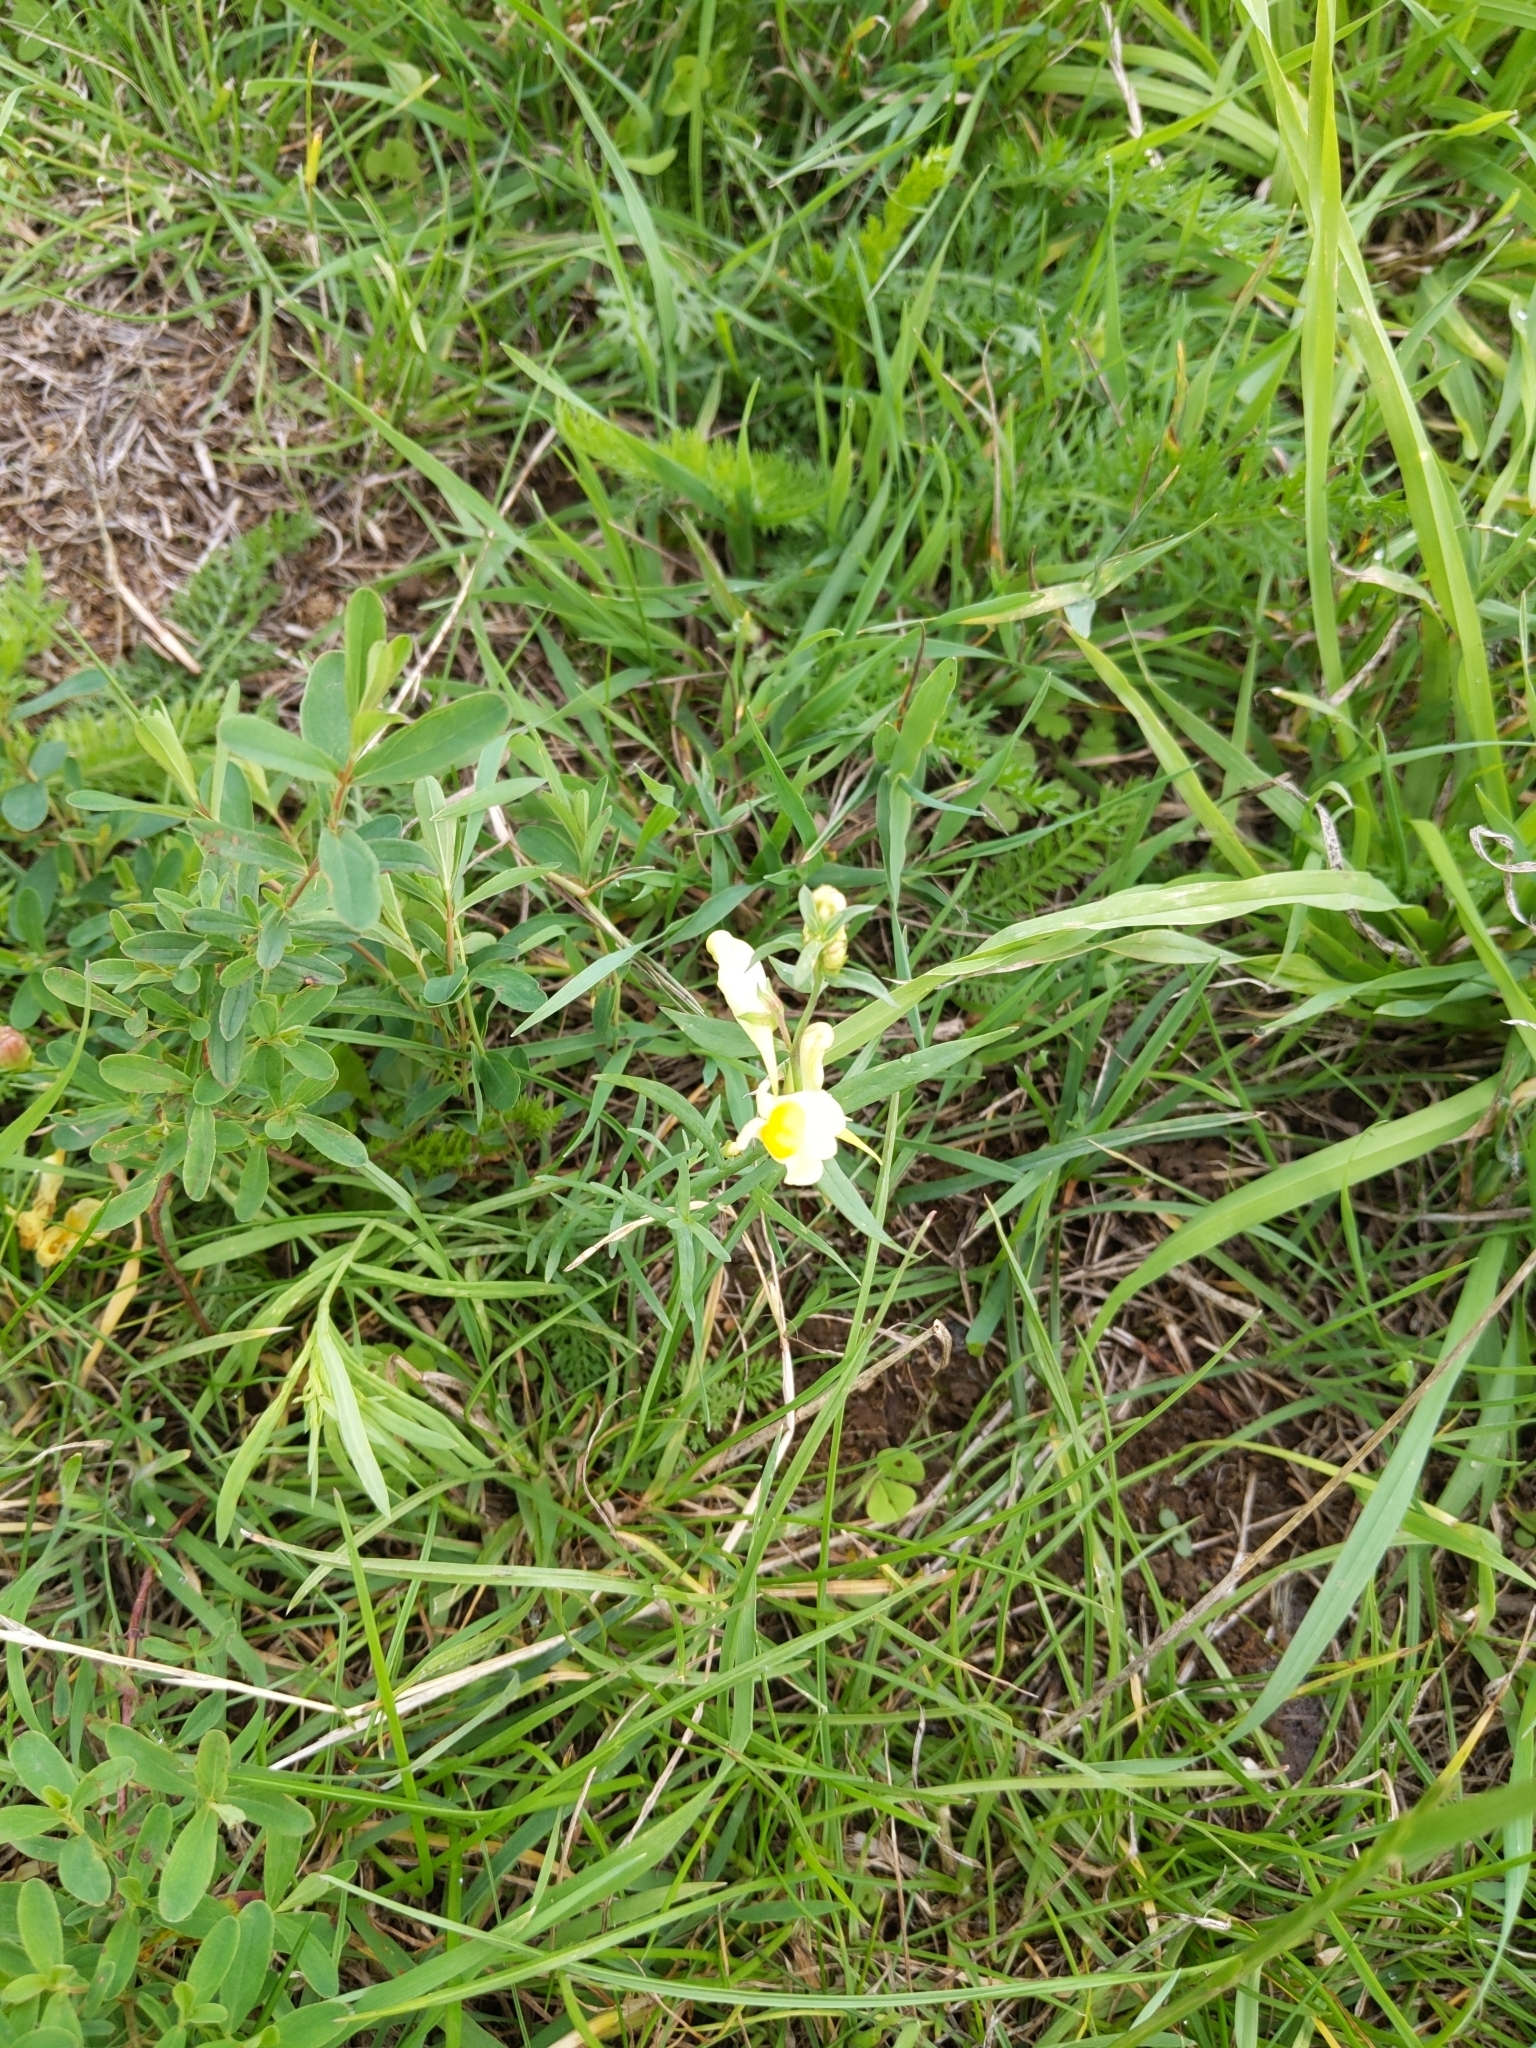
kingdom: Plantae
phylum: Tracheophyta
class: Magnoliopsida
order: Lamiales
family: Plantaginaceae
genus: Linaria
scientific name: Linaria vulgaris
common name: Butter and eggs
